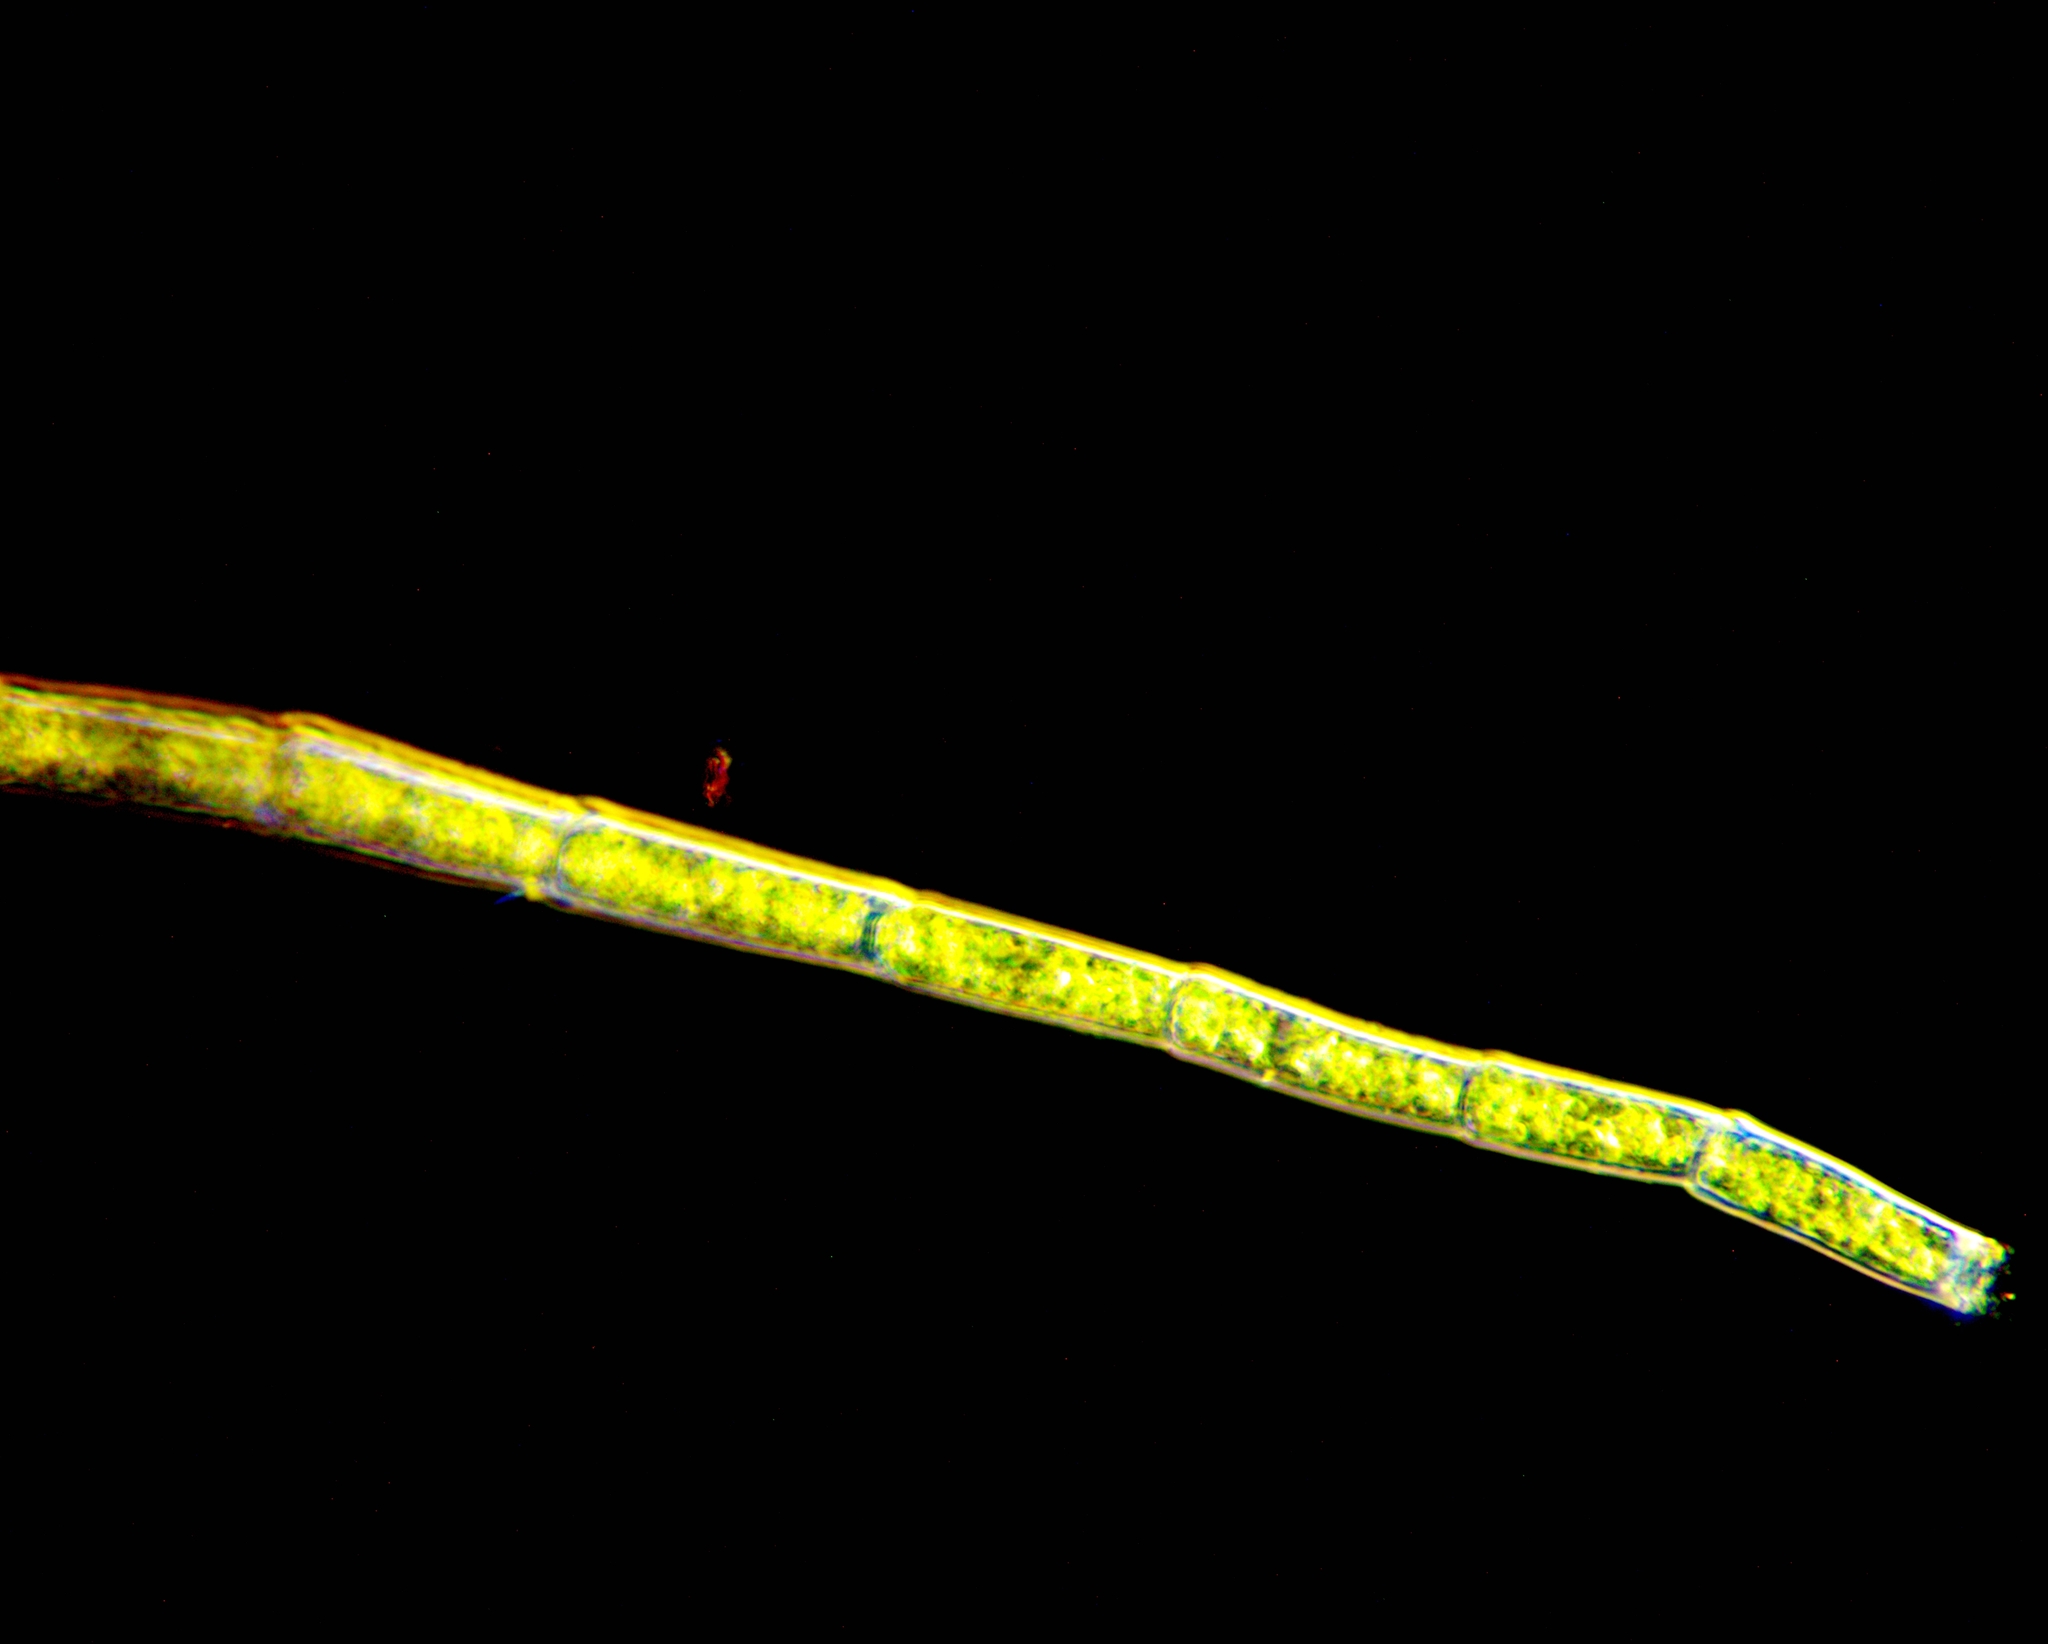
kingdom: Plantae
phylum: Chlorophyta
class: Chlorophyceae
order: Oedogoniales
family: Oedogoniaceae
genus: Oedogonium
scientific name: Oedogonium
